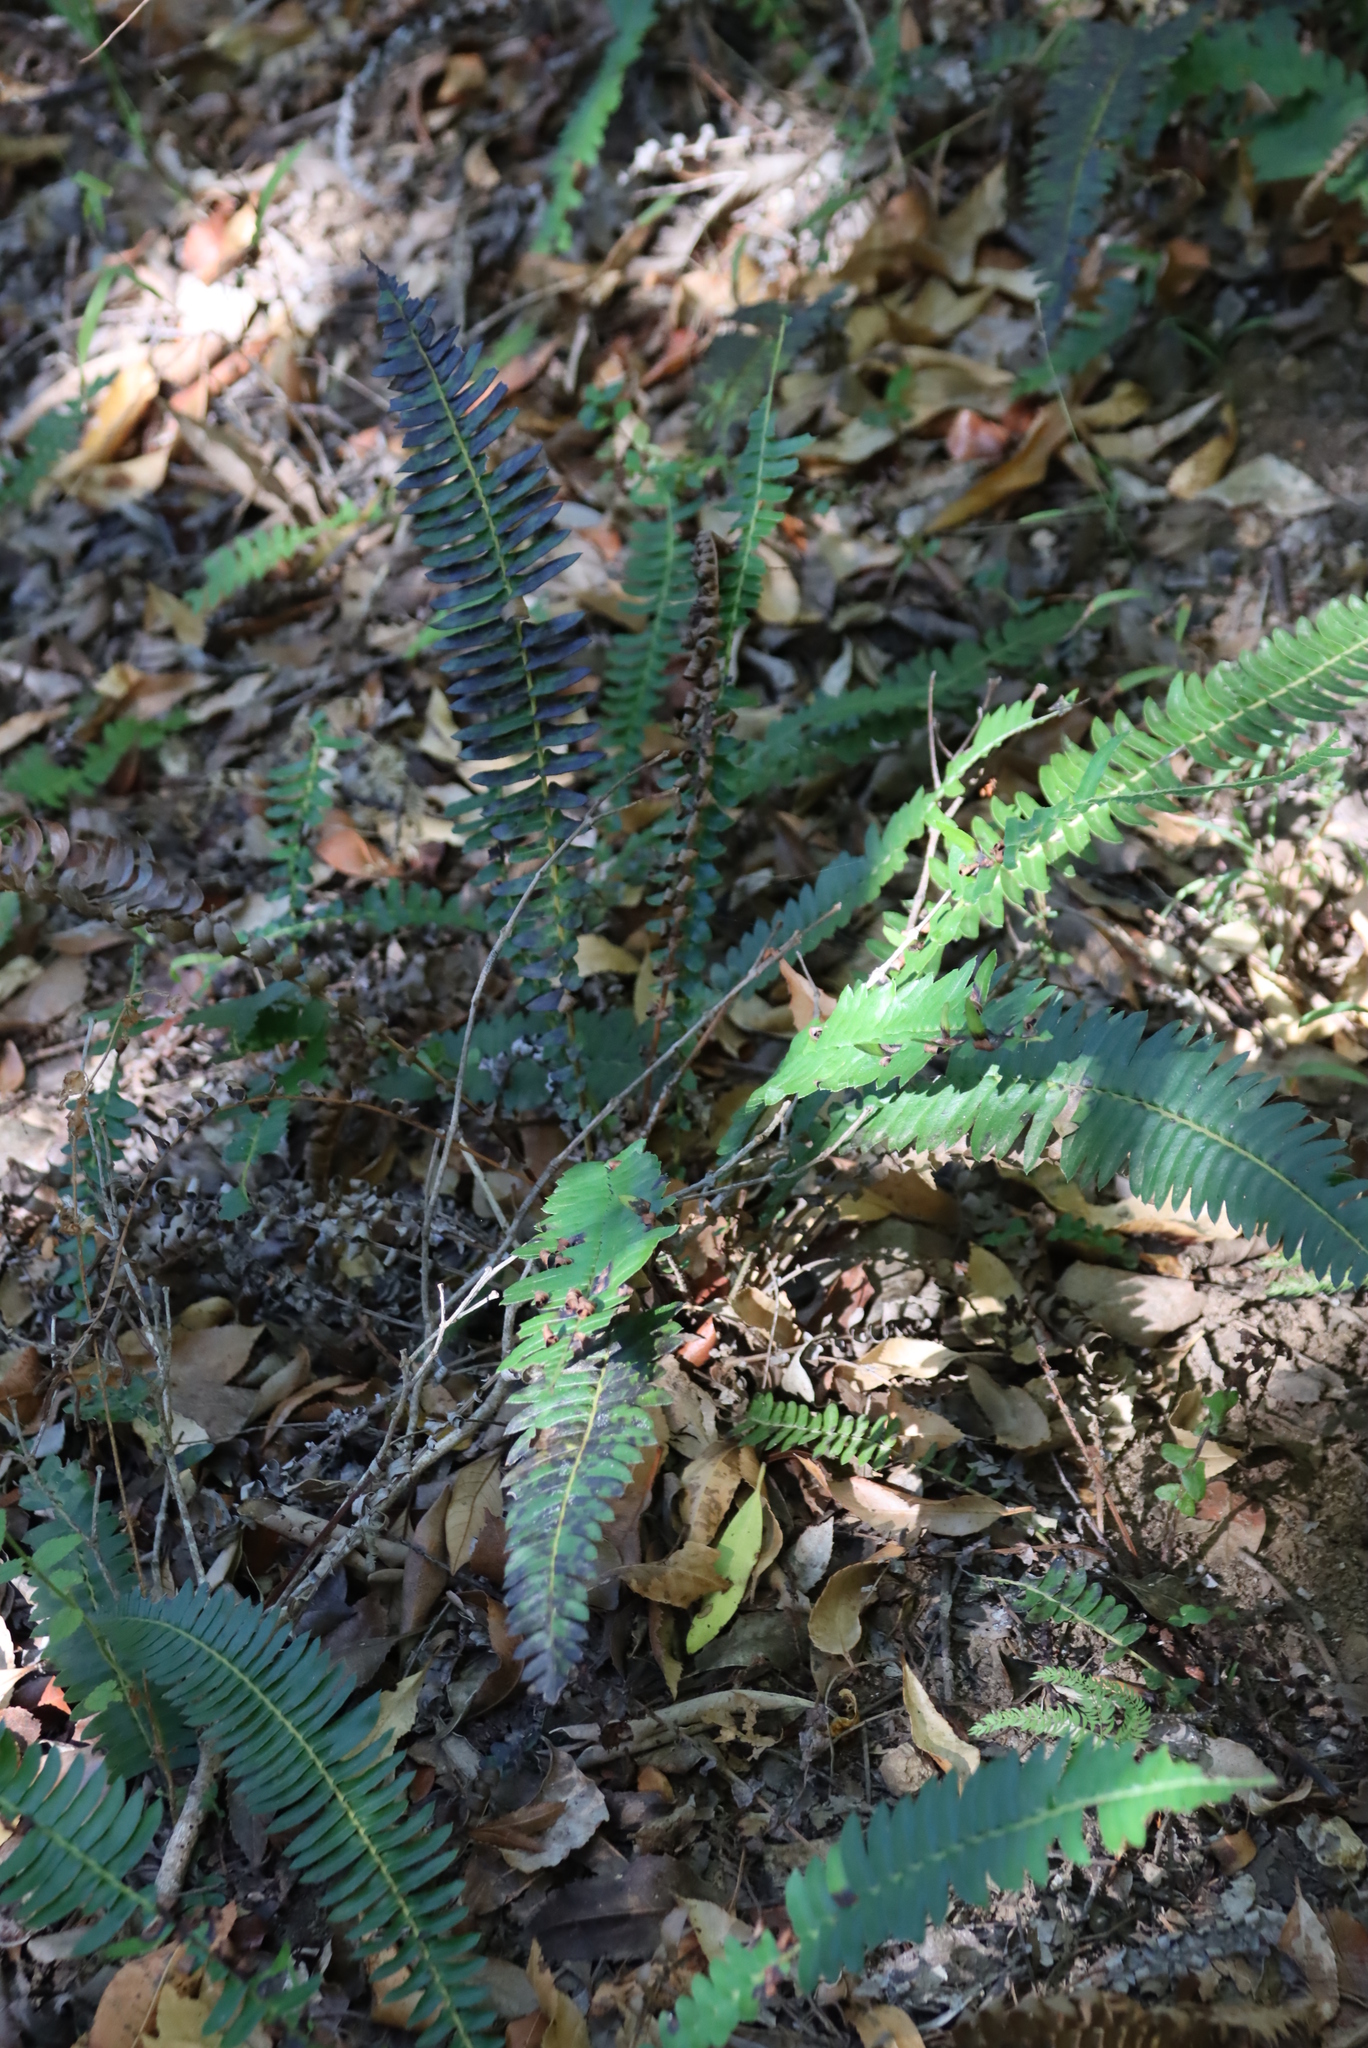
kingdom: Plantae
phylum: Tracheophyta
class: Polypodiopsida
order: Polypodiales
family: Blechnaceae
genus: Blechnum
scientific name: Blechnum australe
